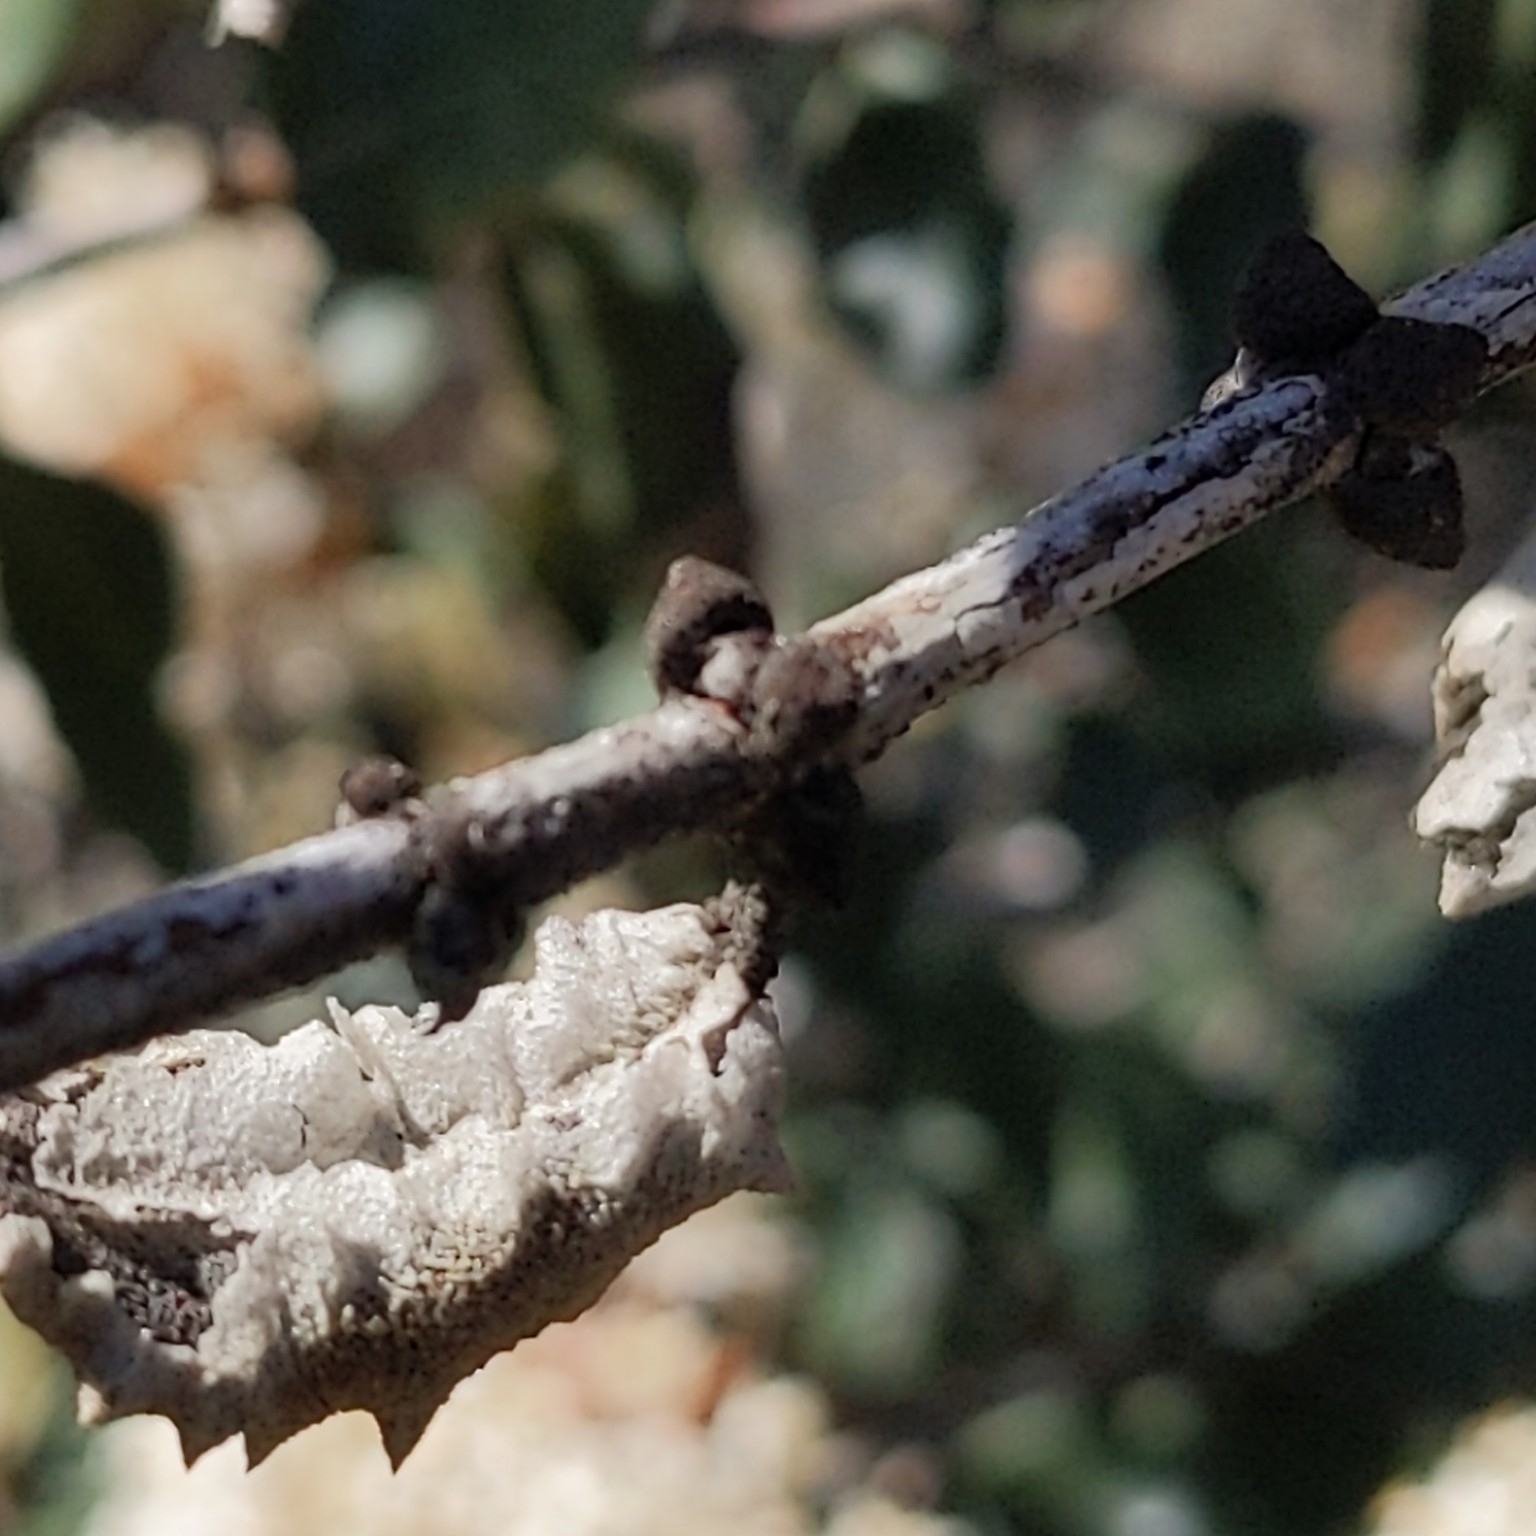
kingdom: Plantae
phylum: Tracheophyta
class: Magnoliopsida
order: Rosales
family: Rhamnaceae
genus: Ceanothus
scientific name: Ceanothus crassifolius
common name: Hoaryleaf ceanothus
